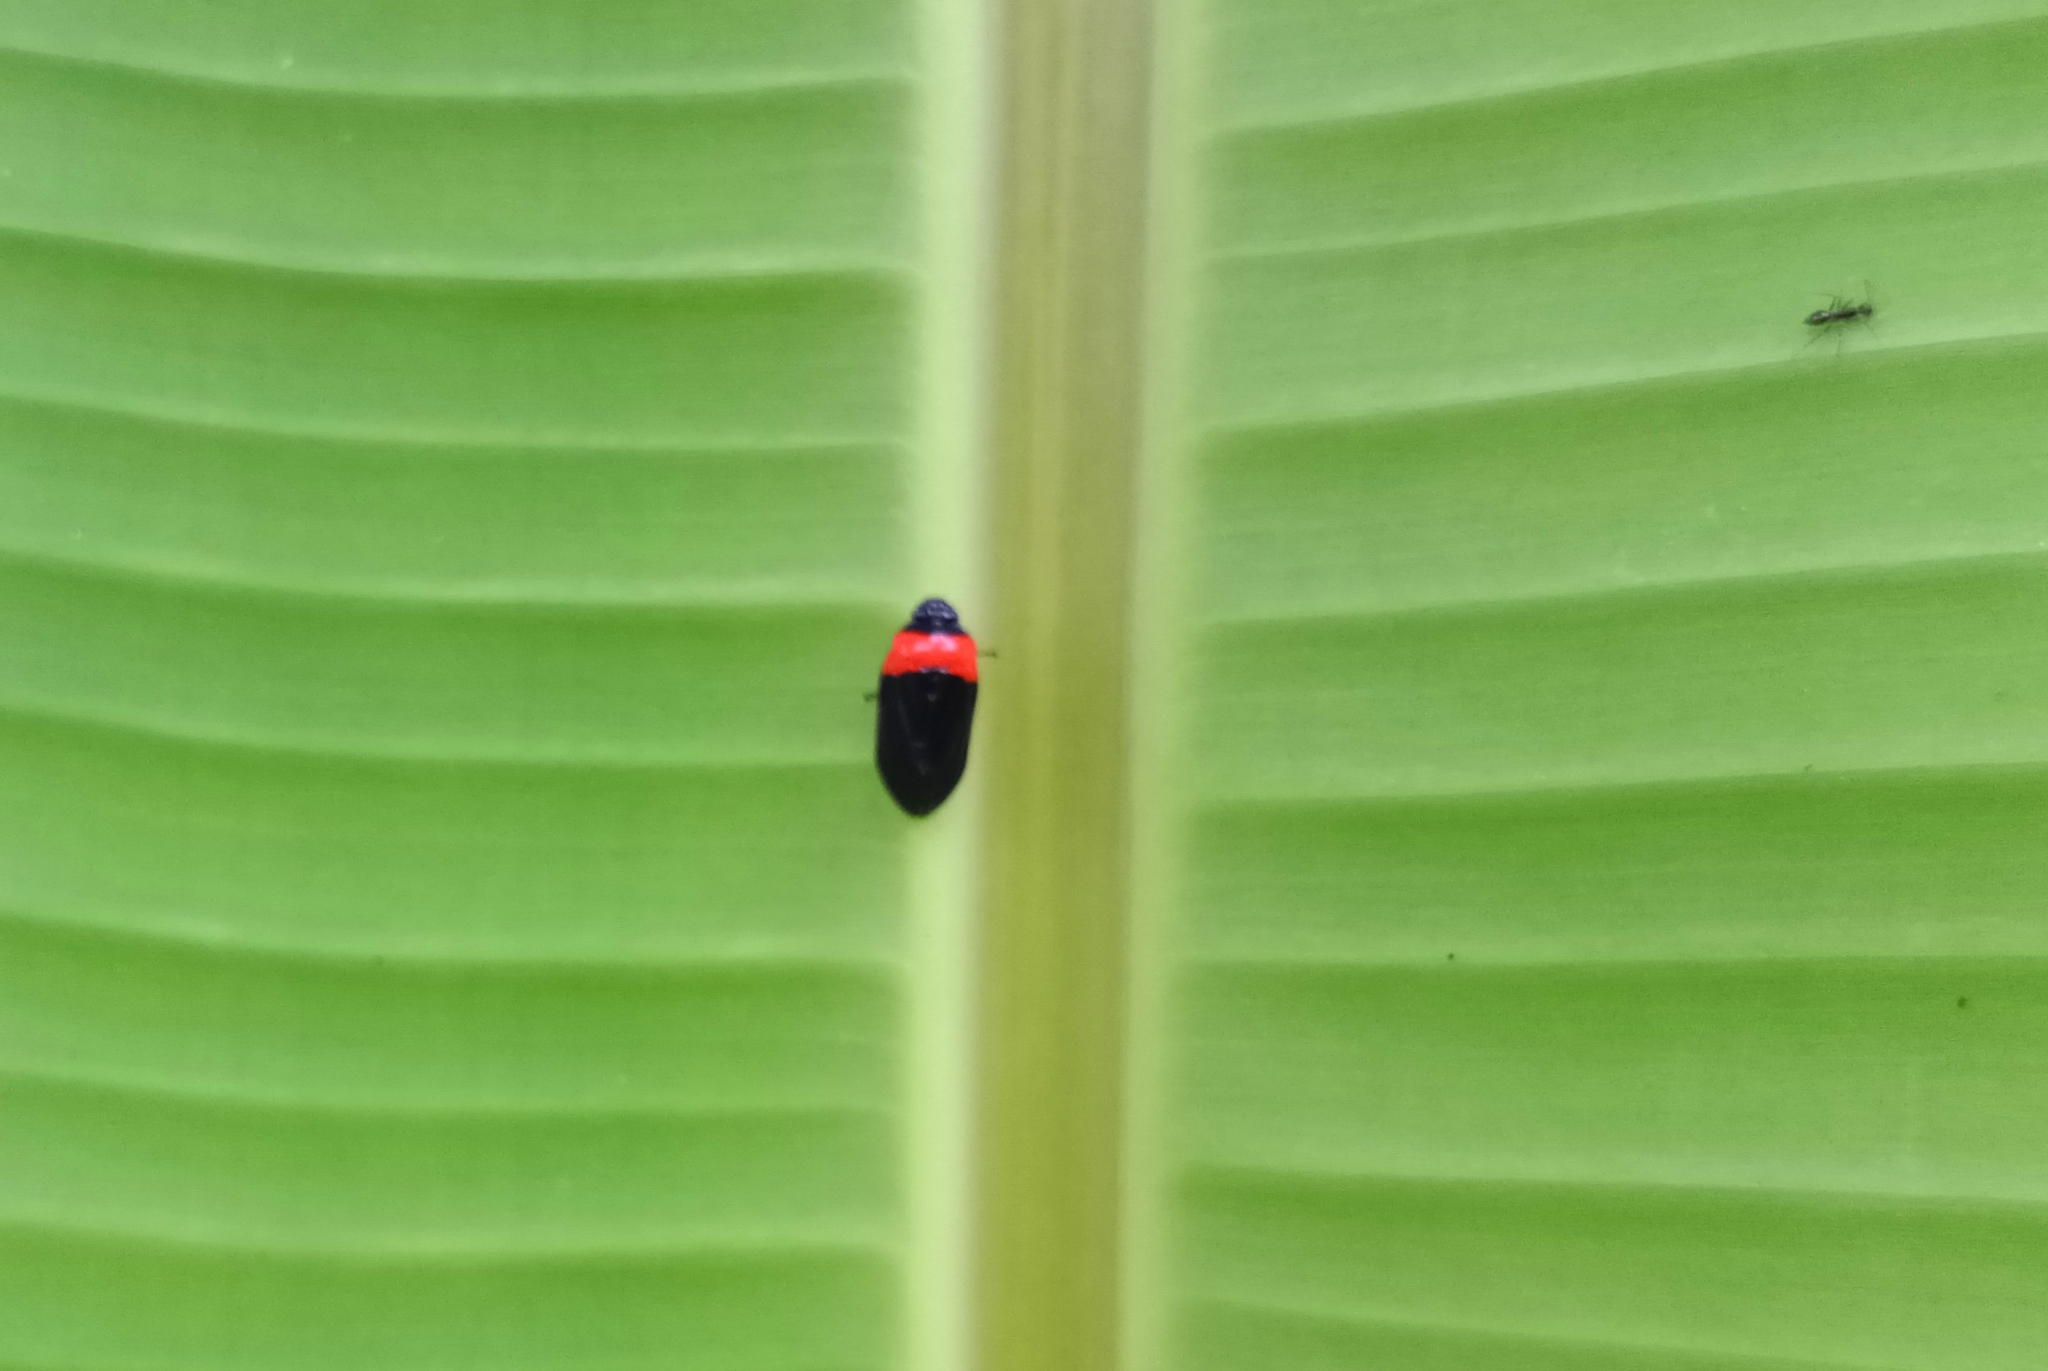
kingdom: Animalia
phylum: Arthropoda
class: Insecta
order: Hemiptera
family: Cercopidae
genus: Phymatostetha
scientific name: Phymatostetha deschampsi
